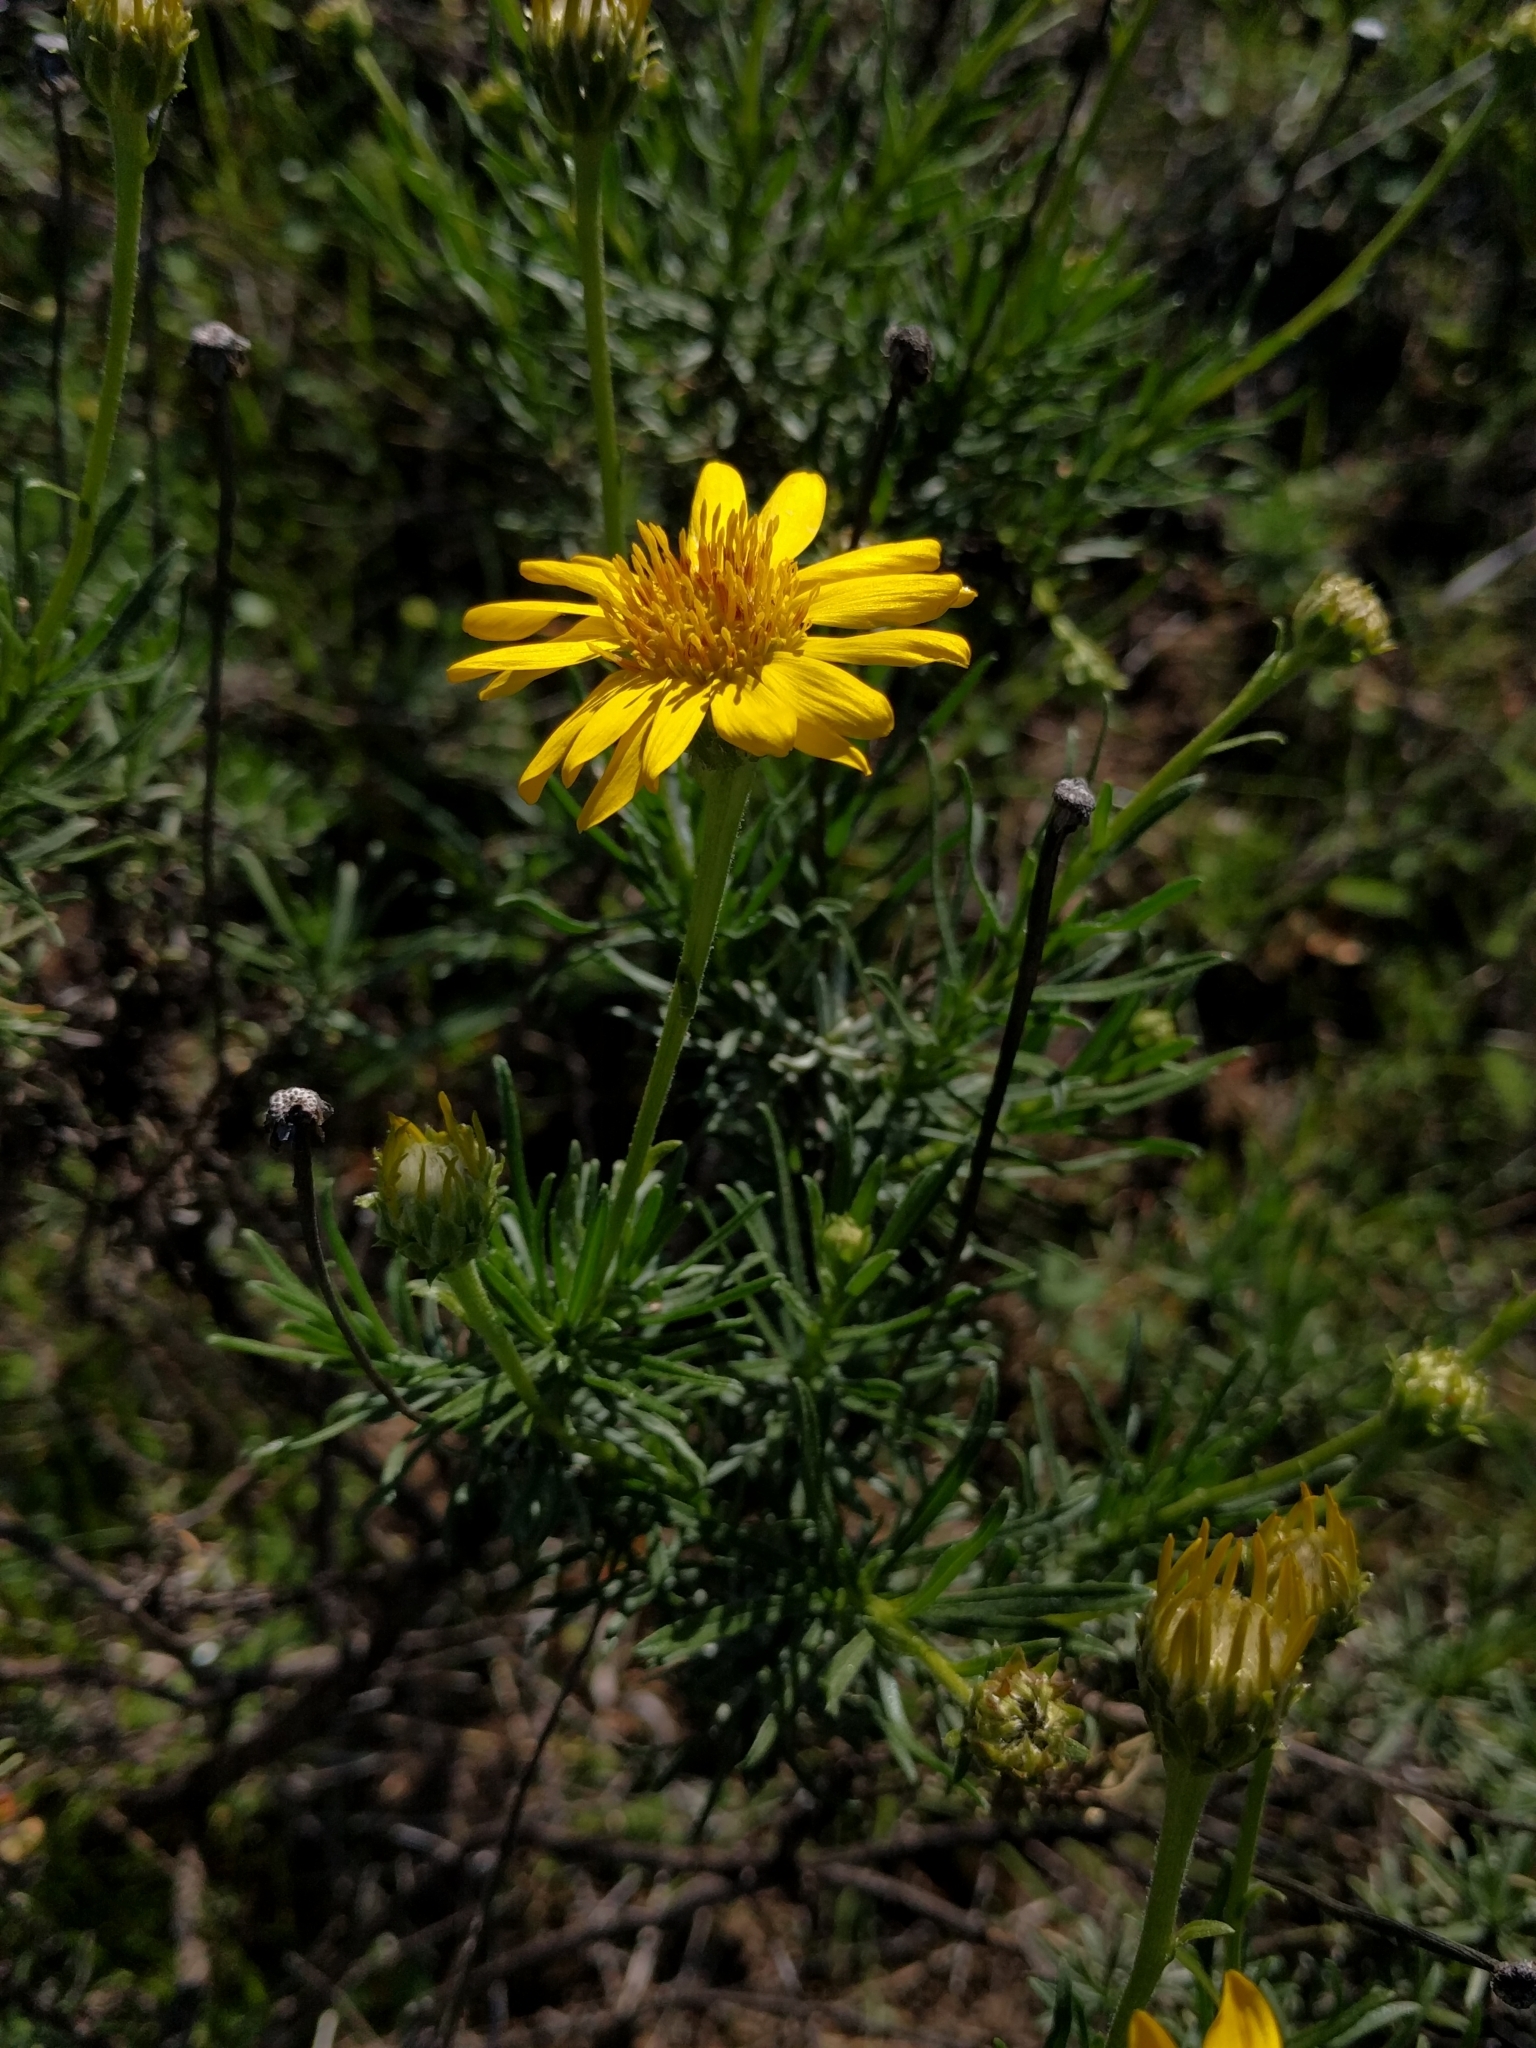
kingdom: Plantae
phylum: Tracheophyta
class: Magnoliopsida
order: Asterales
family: Asteraceae
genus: Ericameria
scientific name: Ericameria linearifolia
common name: Interior goldenbush
